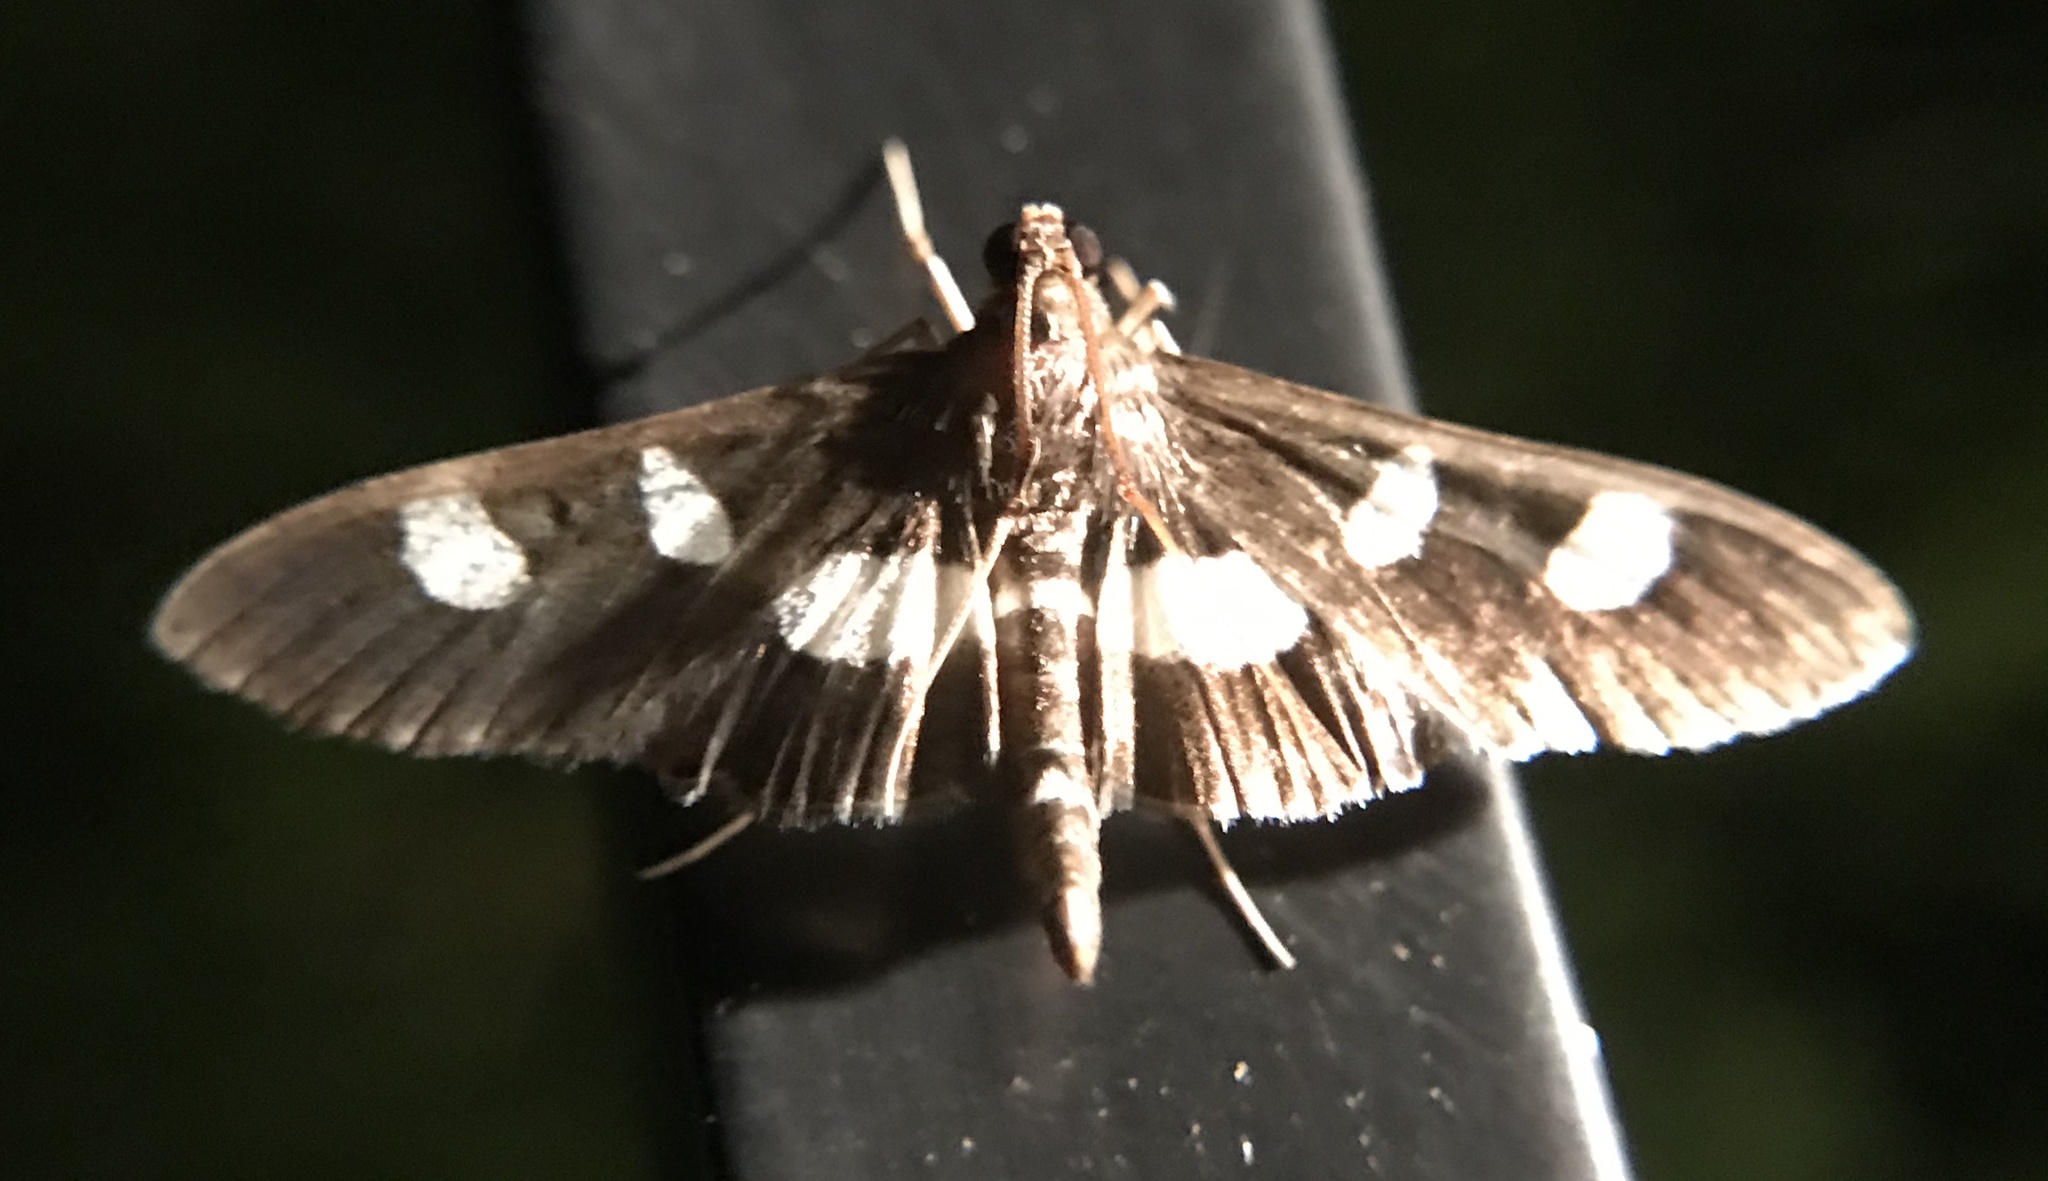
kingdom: Animalia
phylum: Arthropoda
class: Insecta
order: Lepidoptera
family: Crambidae
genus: Desmia
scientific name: Desmia
